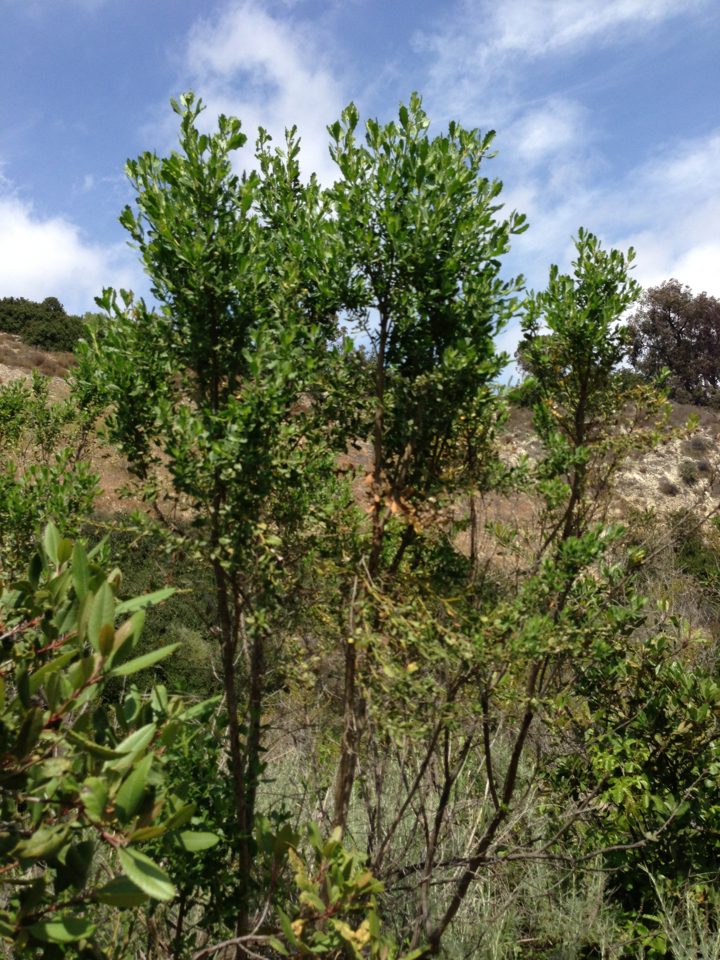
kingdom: Plantae
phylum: Tracheophyta
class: Magnoliopsida
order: Asterales
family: Asteraceae
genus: Baccharis
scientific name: Baccharis pilularis
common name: Coyotebrush
